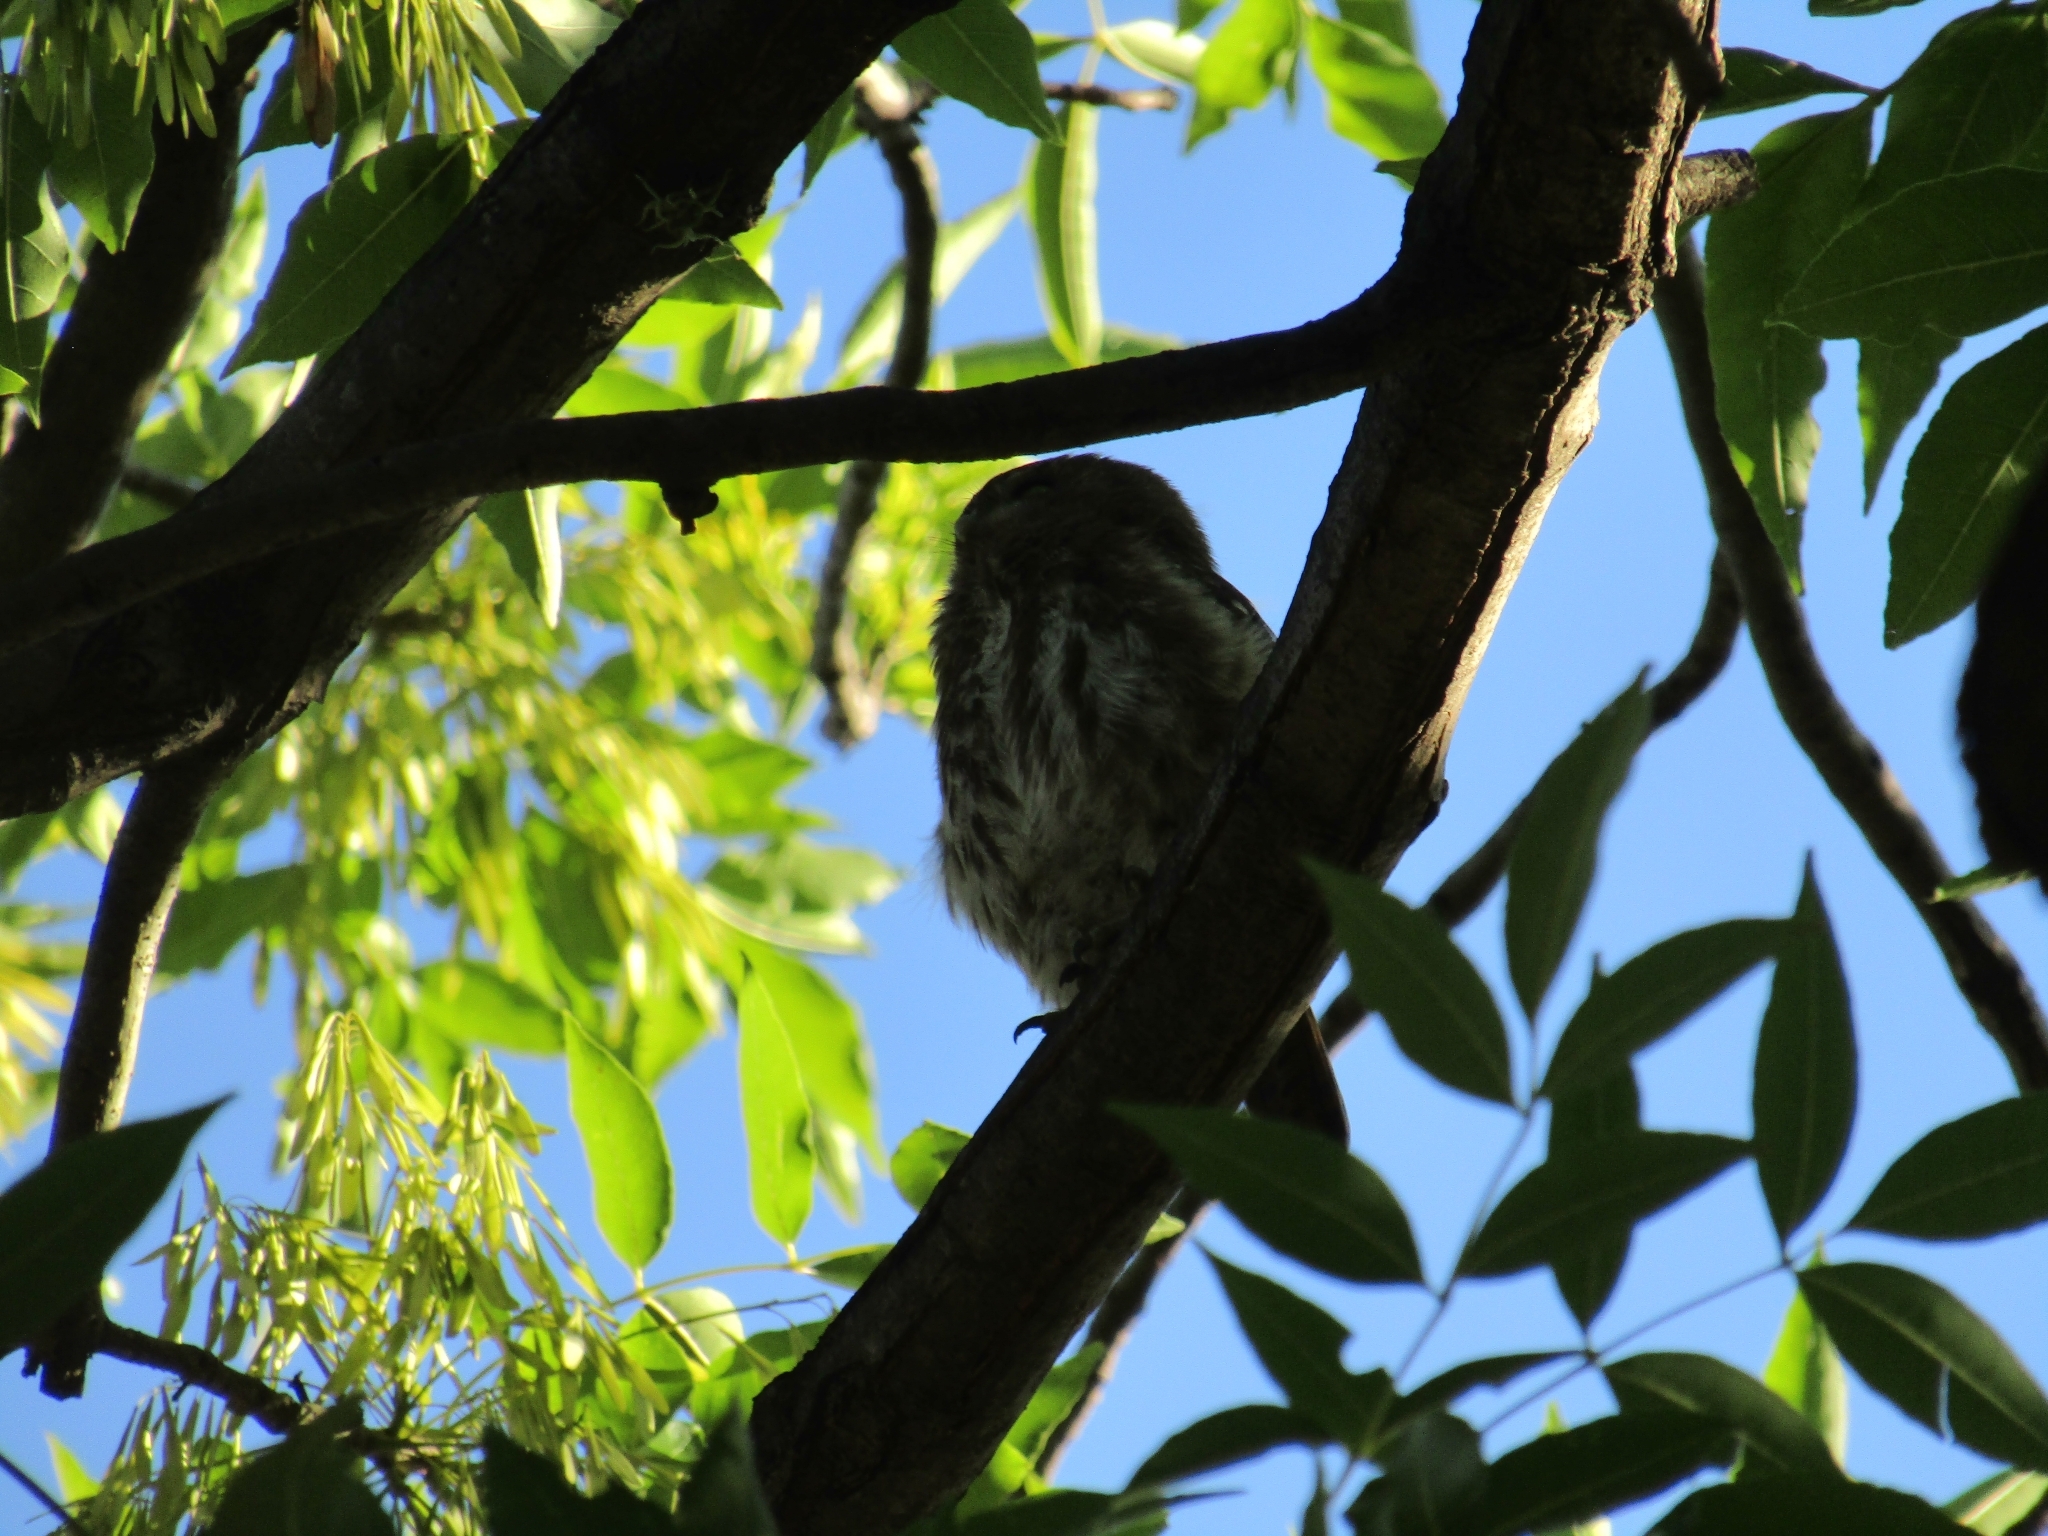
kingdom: Animalia
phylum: Chordata
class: Aves
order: Strigiformes
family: Strigidae
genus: Glaucidium
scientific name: Glaucidium brasilianum
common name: Ferruginous pygmy-owl
